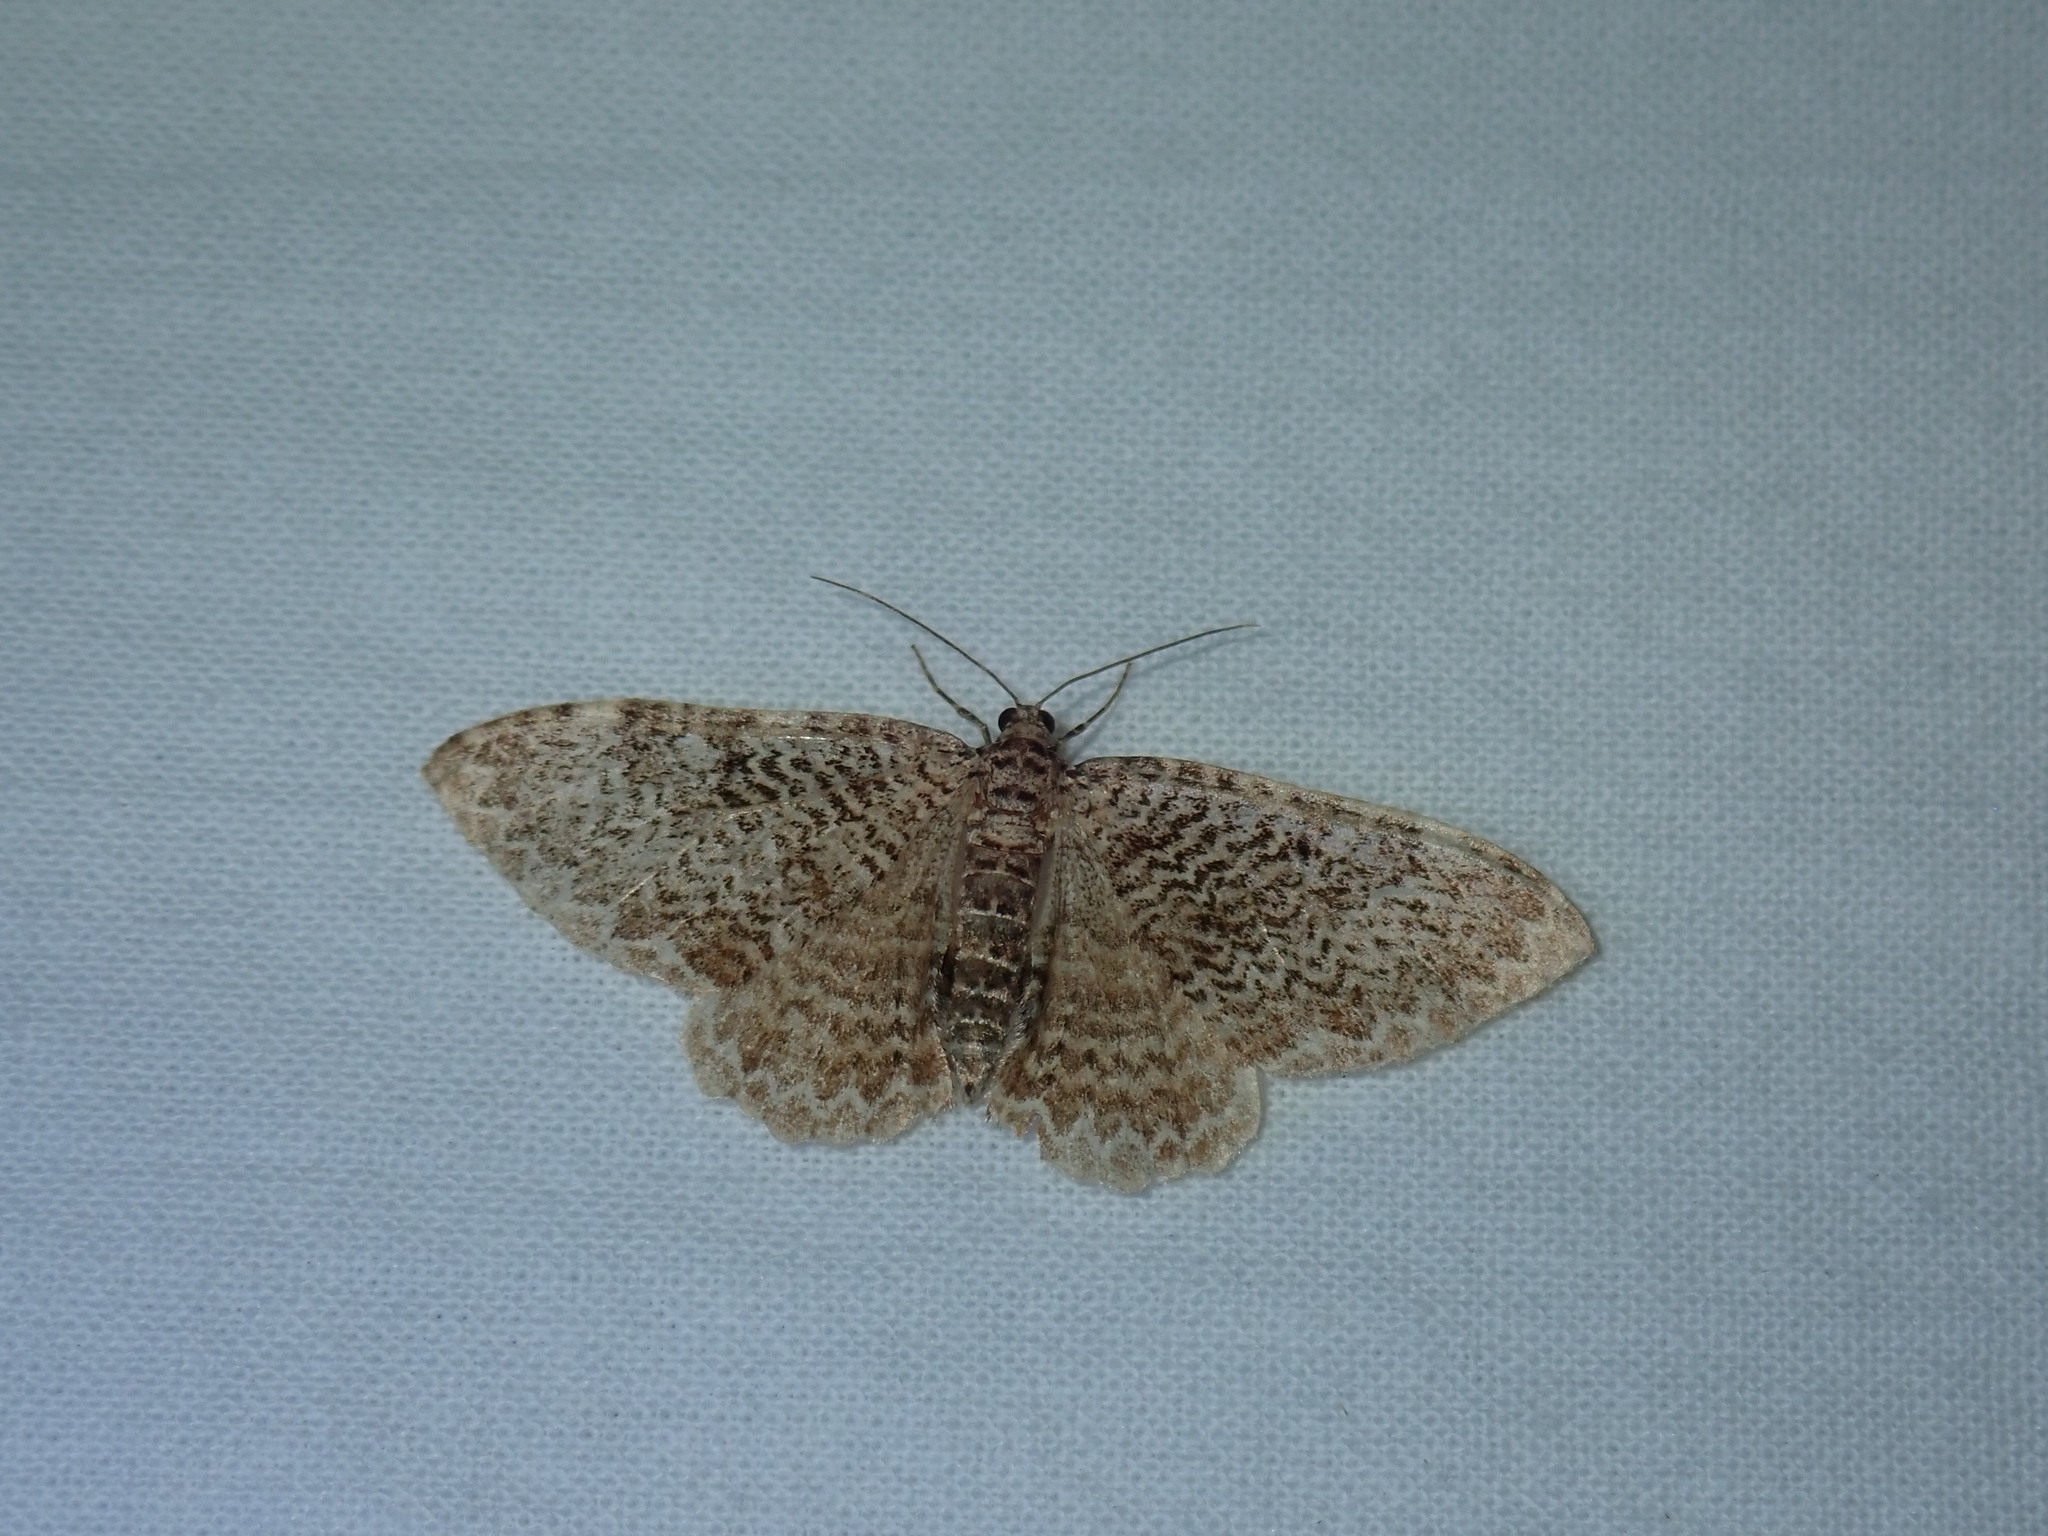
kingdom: Animalia
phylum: Arthropoda
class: Insecta
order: Lepidoptera
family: Geometridae
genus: Rheumaptera
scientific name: Rheumaptera
